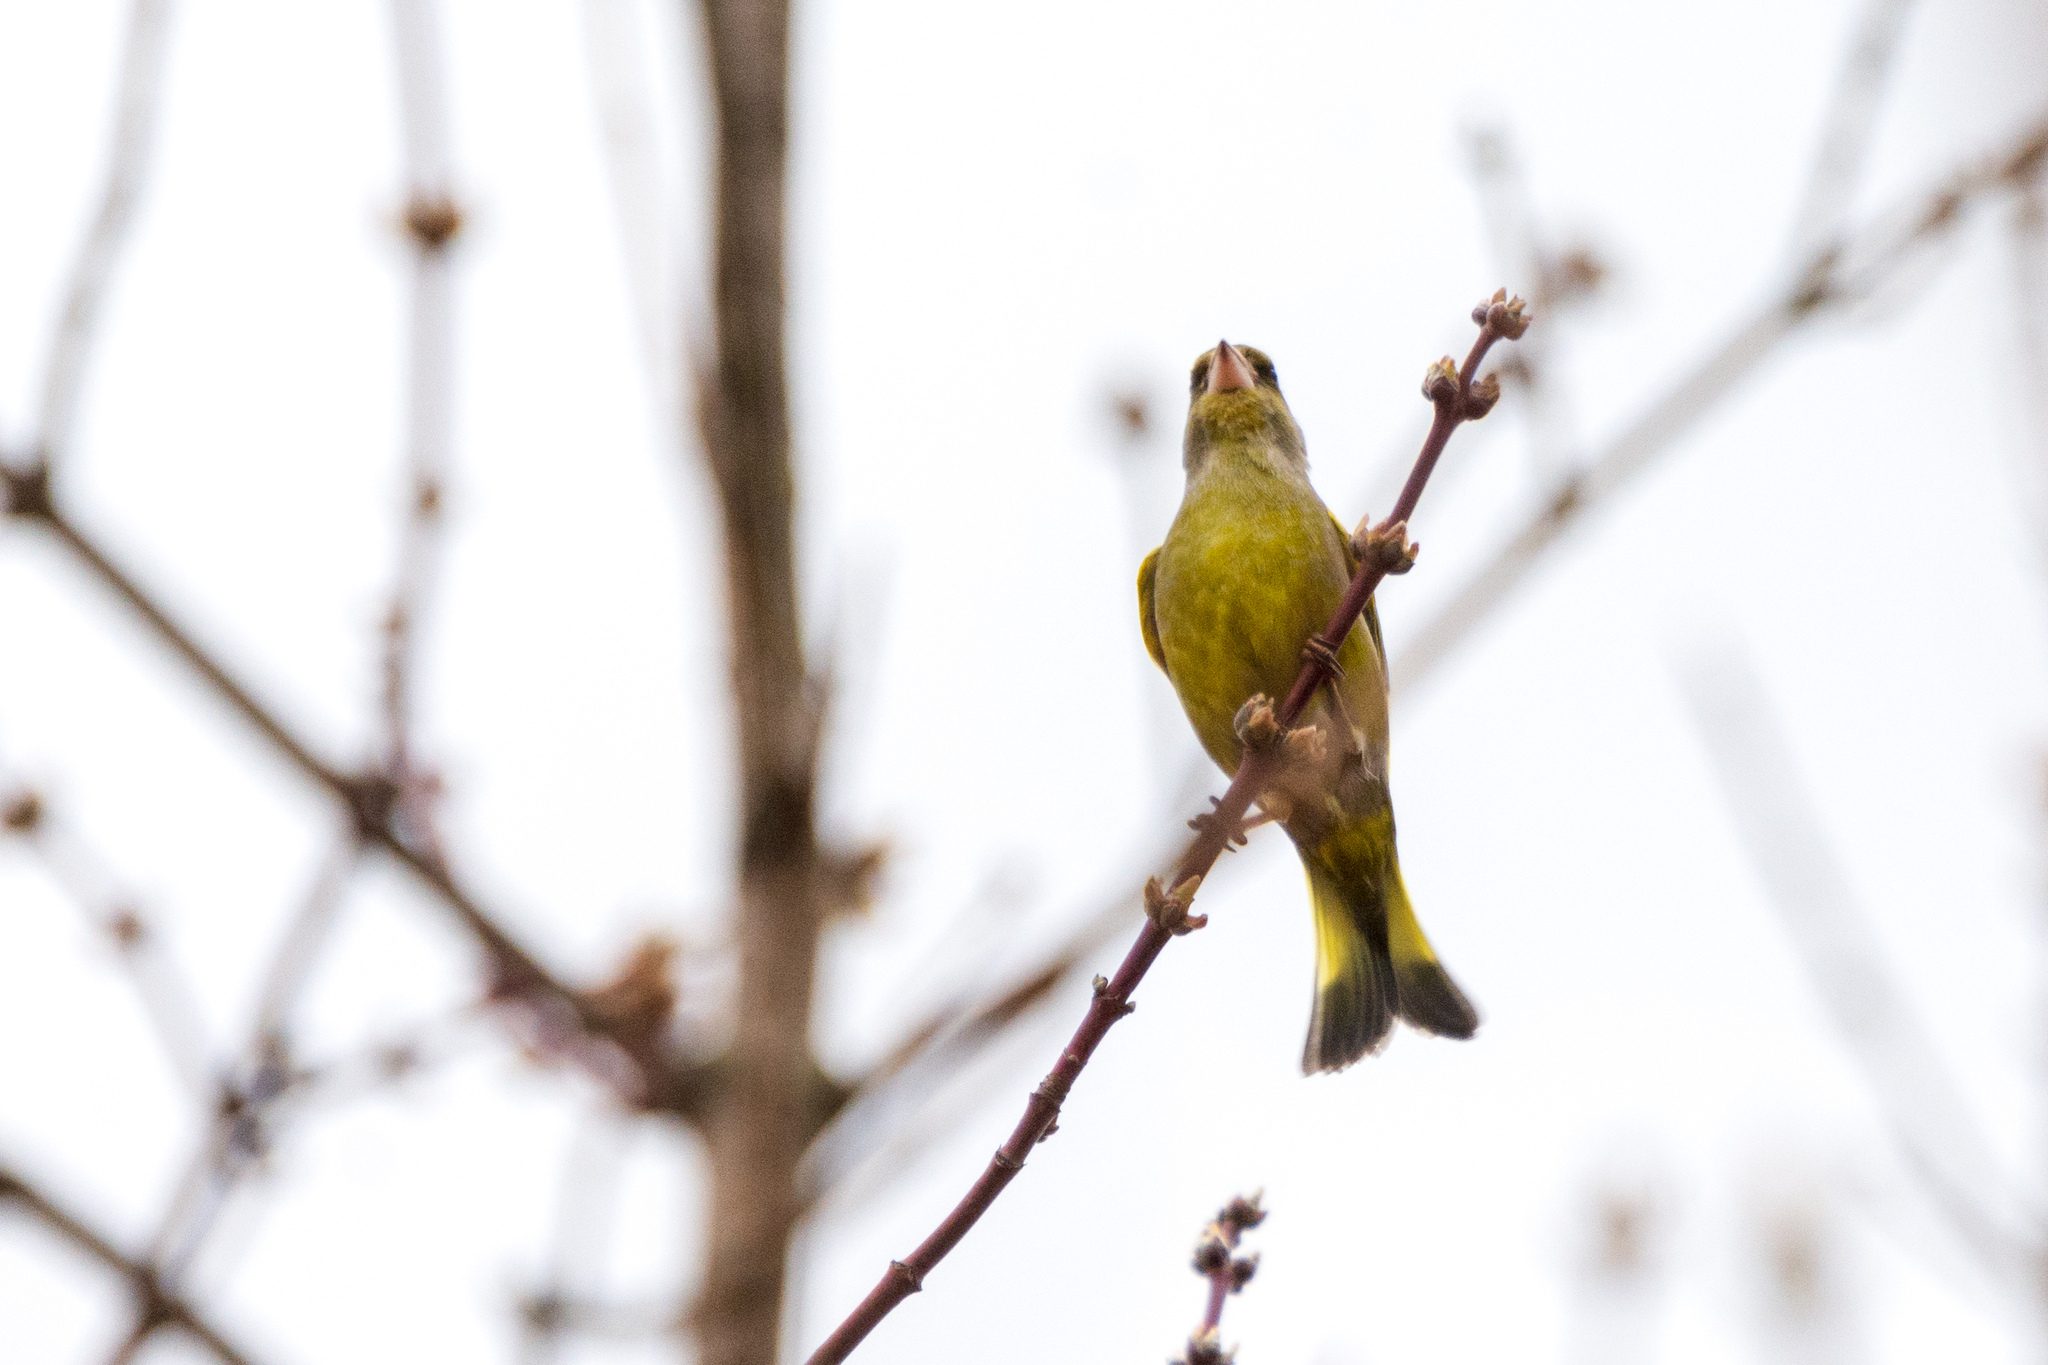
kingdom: Plantae
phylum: Tracheophyta
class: Liliopsida
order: Poales
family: Poaceae
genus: Chloris
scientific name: Chloris chloris
